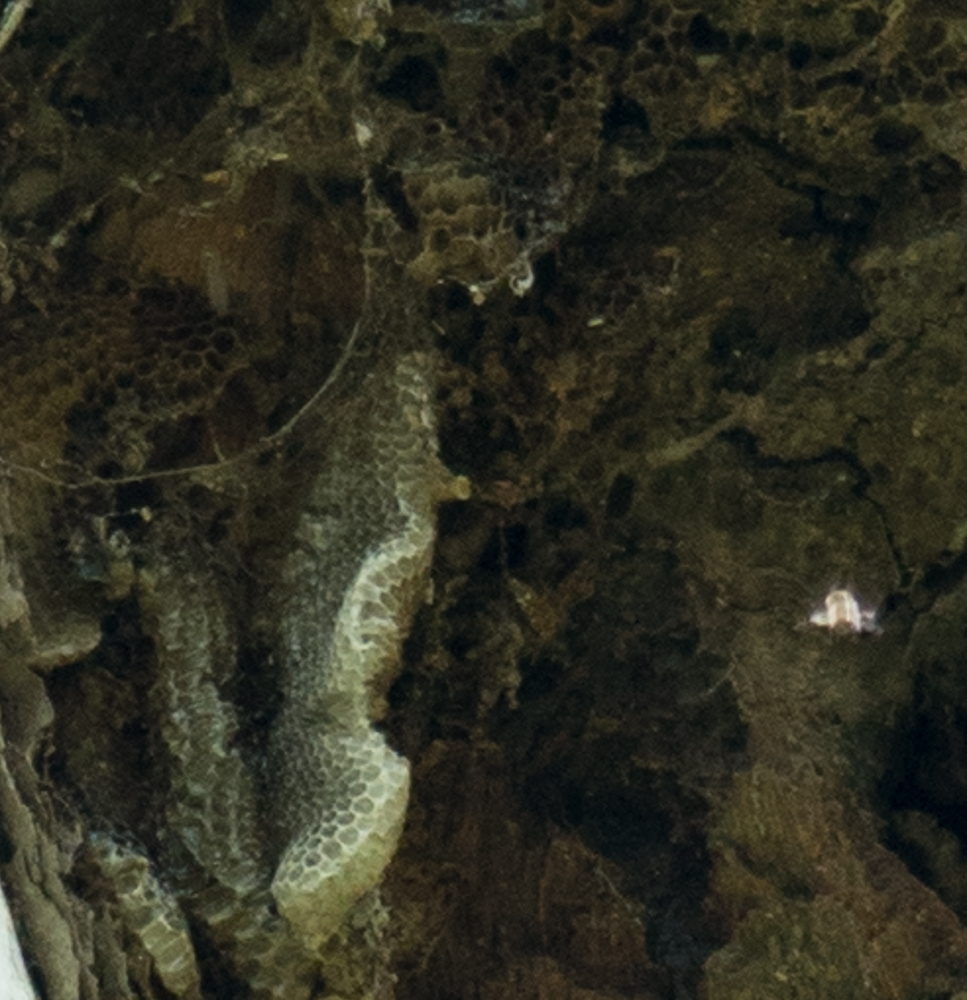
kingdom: Animalia
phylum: Arthropoda
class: Insecta
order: Hymenoptera
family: Apidae
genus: Apis
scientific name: Apis mellifera
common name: Honey bee
